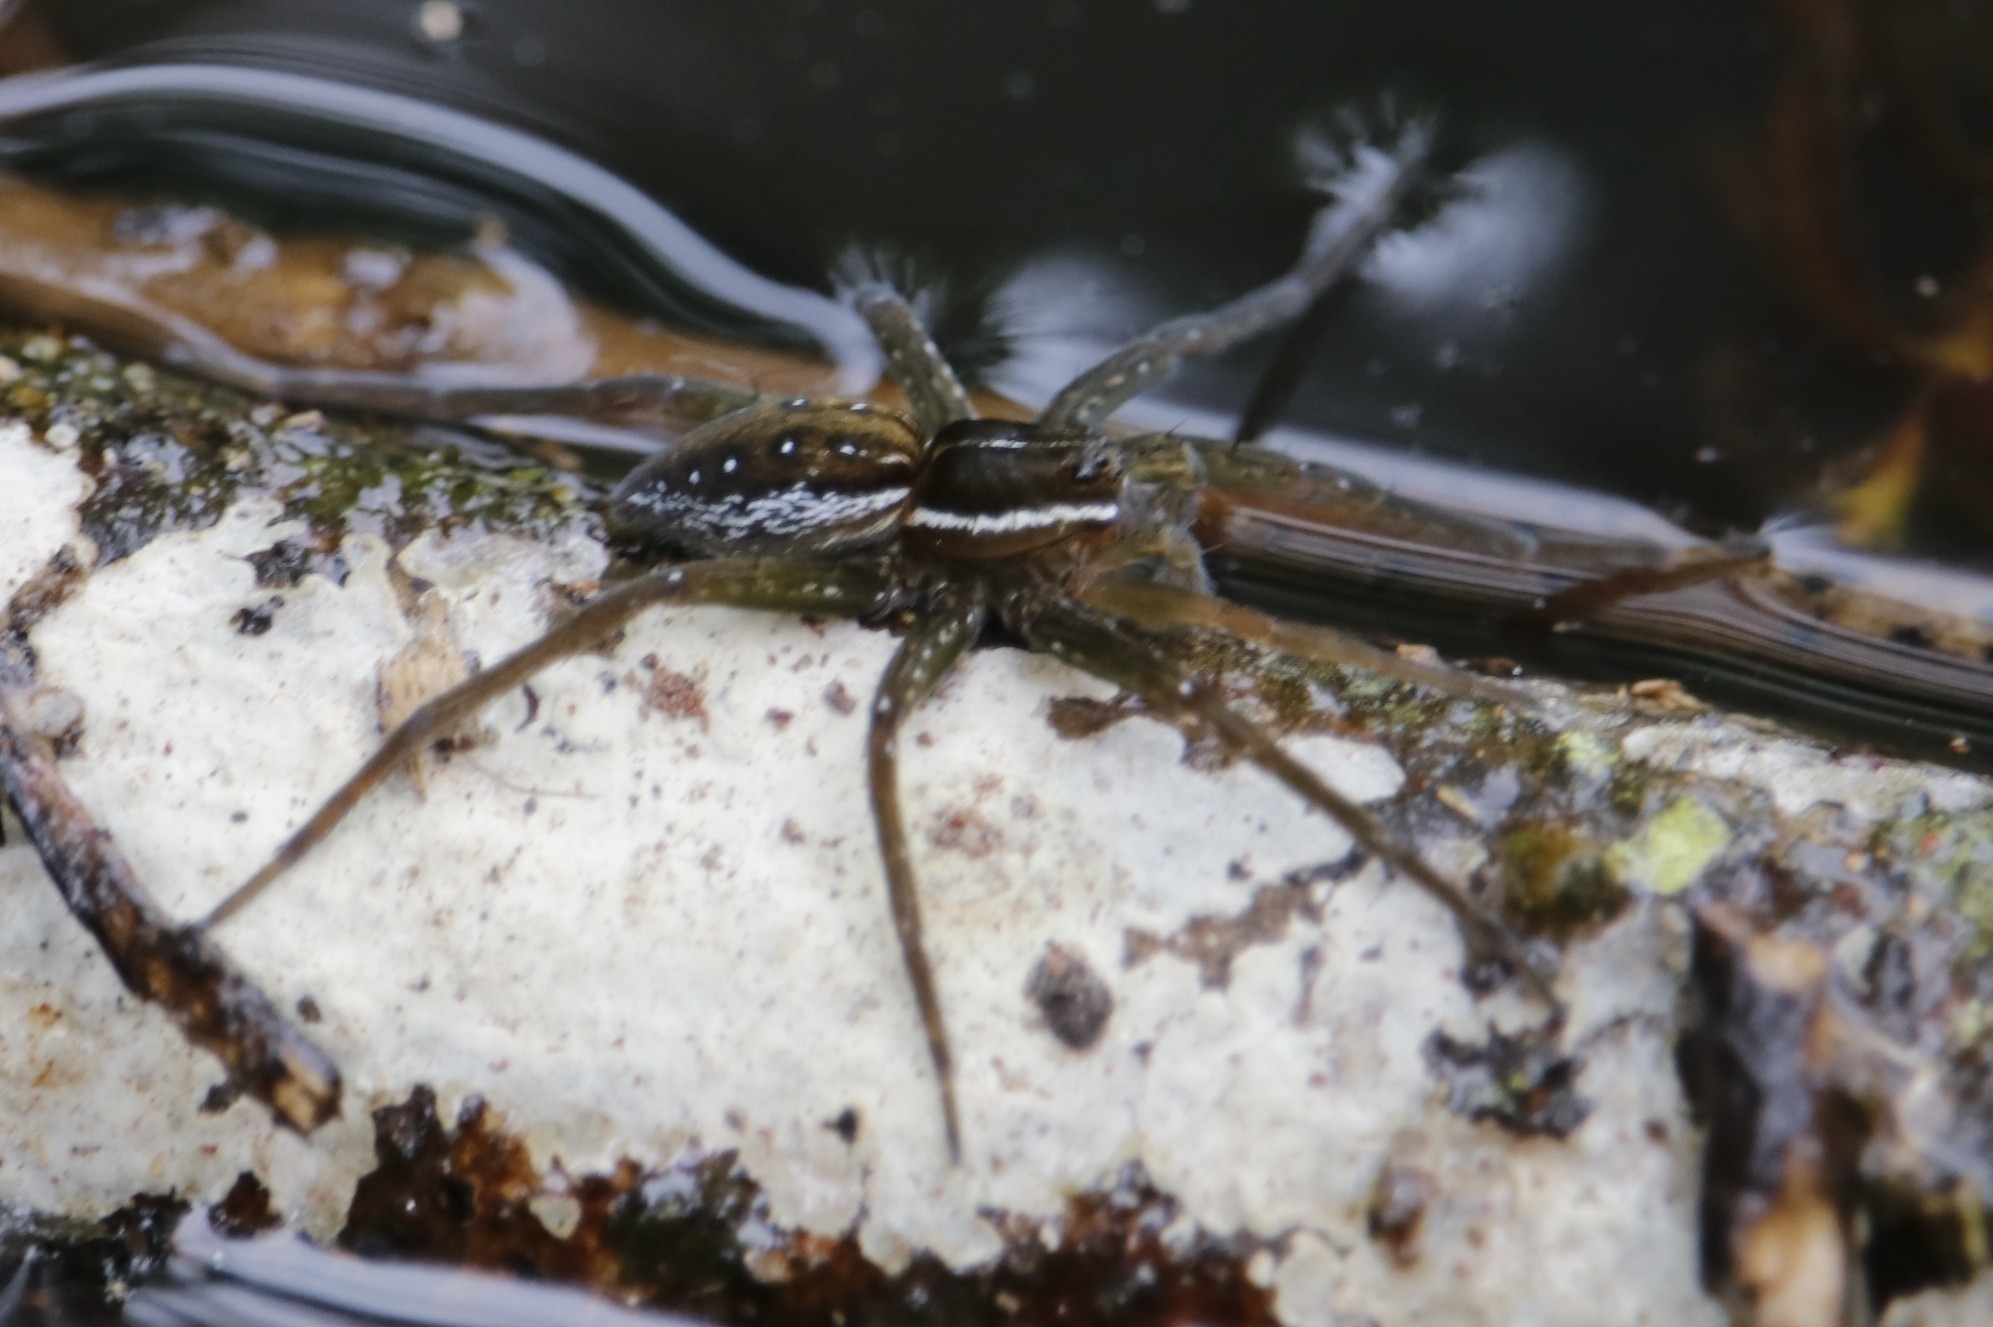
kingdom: Animalia
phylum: Arthropoda
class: Arachnida
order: Araneae
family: Pisauridae
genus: Dolomedes
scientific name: Dolomedes triton
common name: Six-spotted fishing spider
